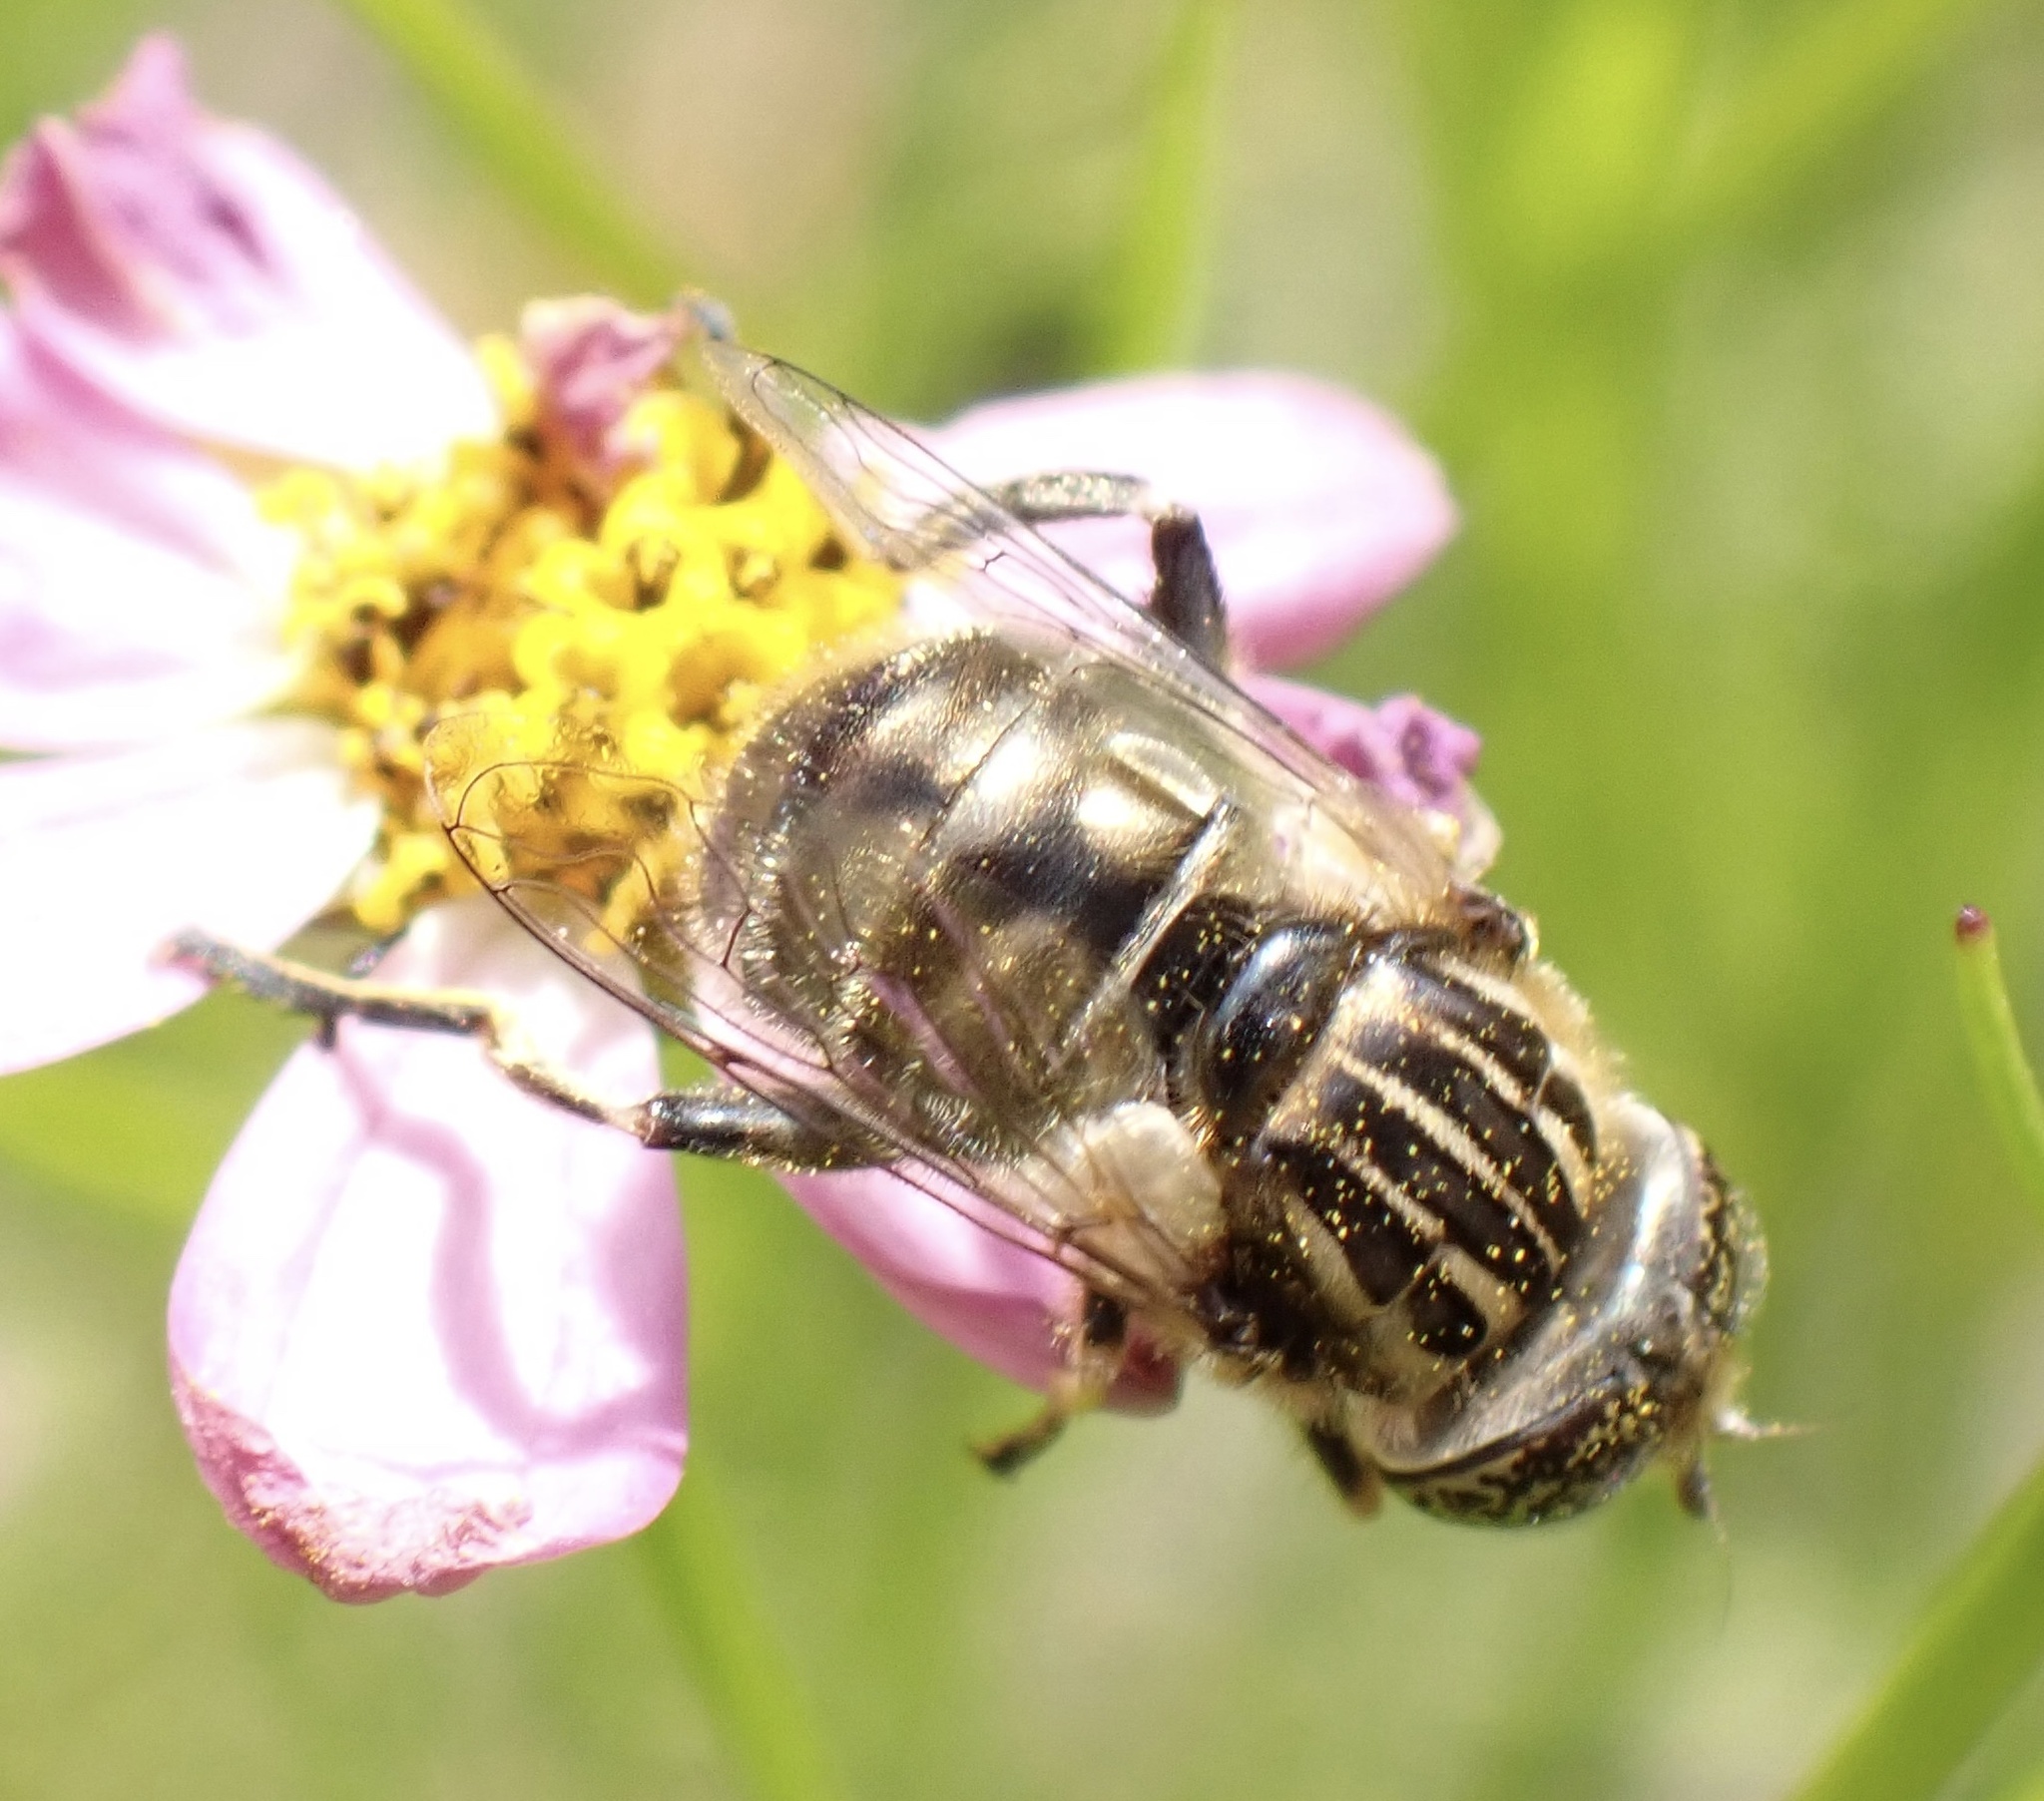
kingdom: Animalia
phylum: Arthropoda
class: Insecta
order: Diptera
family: Syrphidae
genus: Eristalinus
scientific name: Eristalinus sepulchralis
